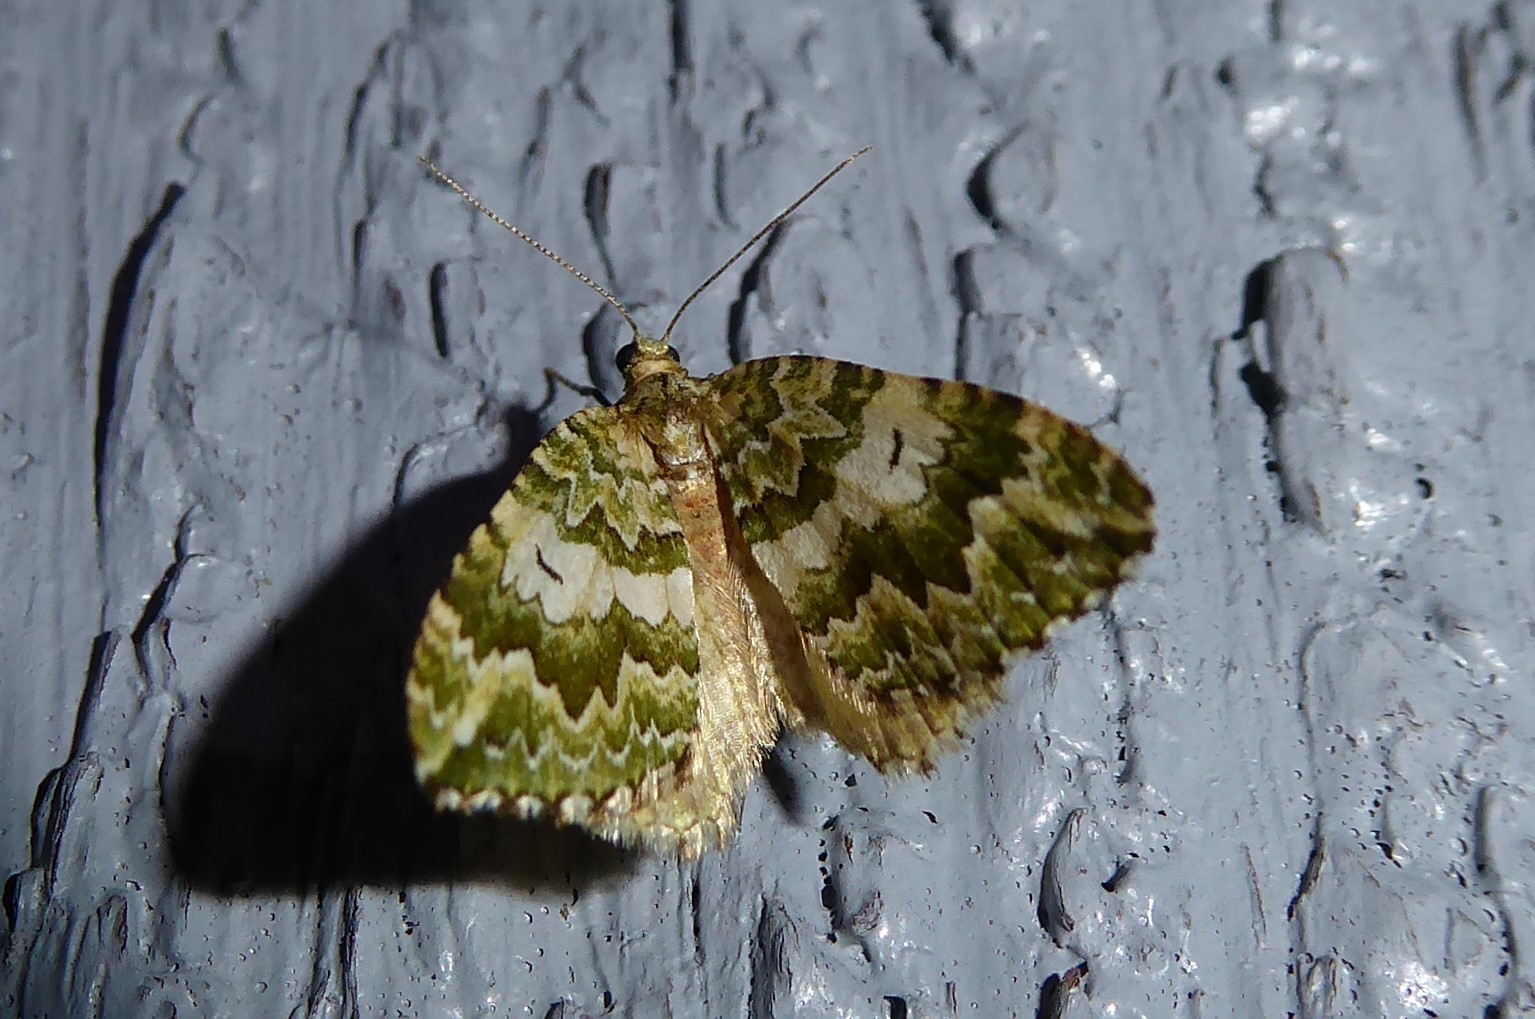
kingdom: Animalia
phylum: Arthropoda
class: Insecta
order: Lepidoptera
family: Geometridae
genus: Asaphodes
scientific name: Asaphodes beata
